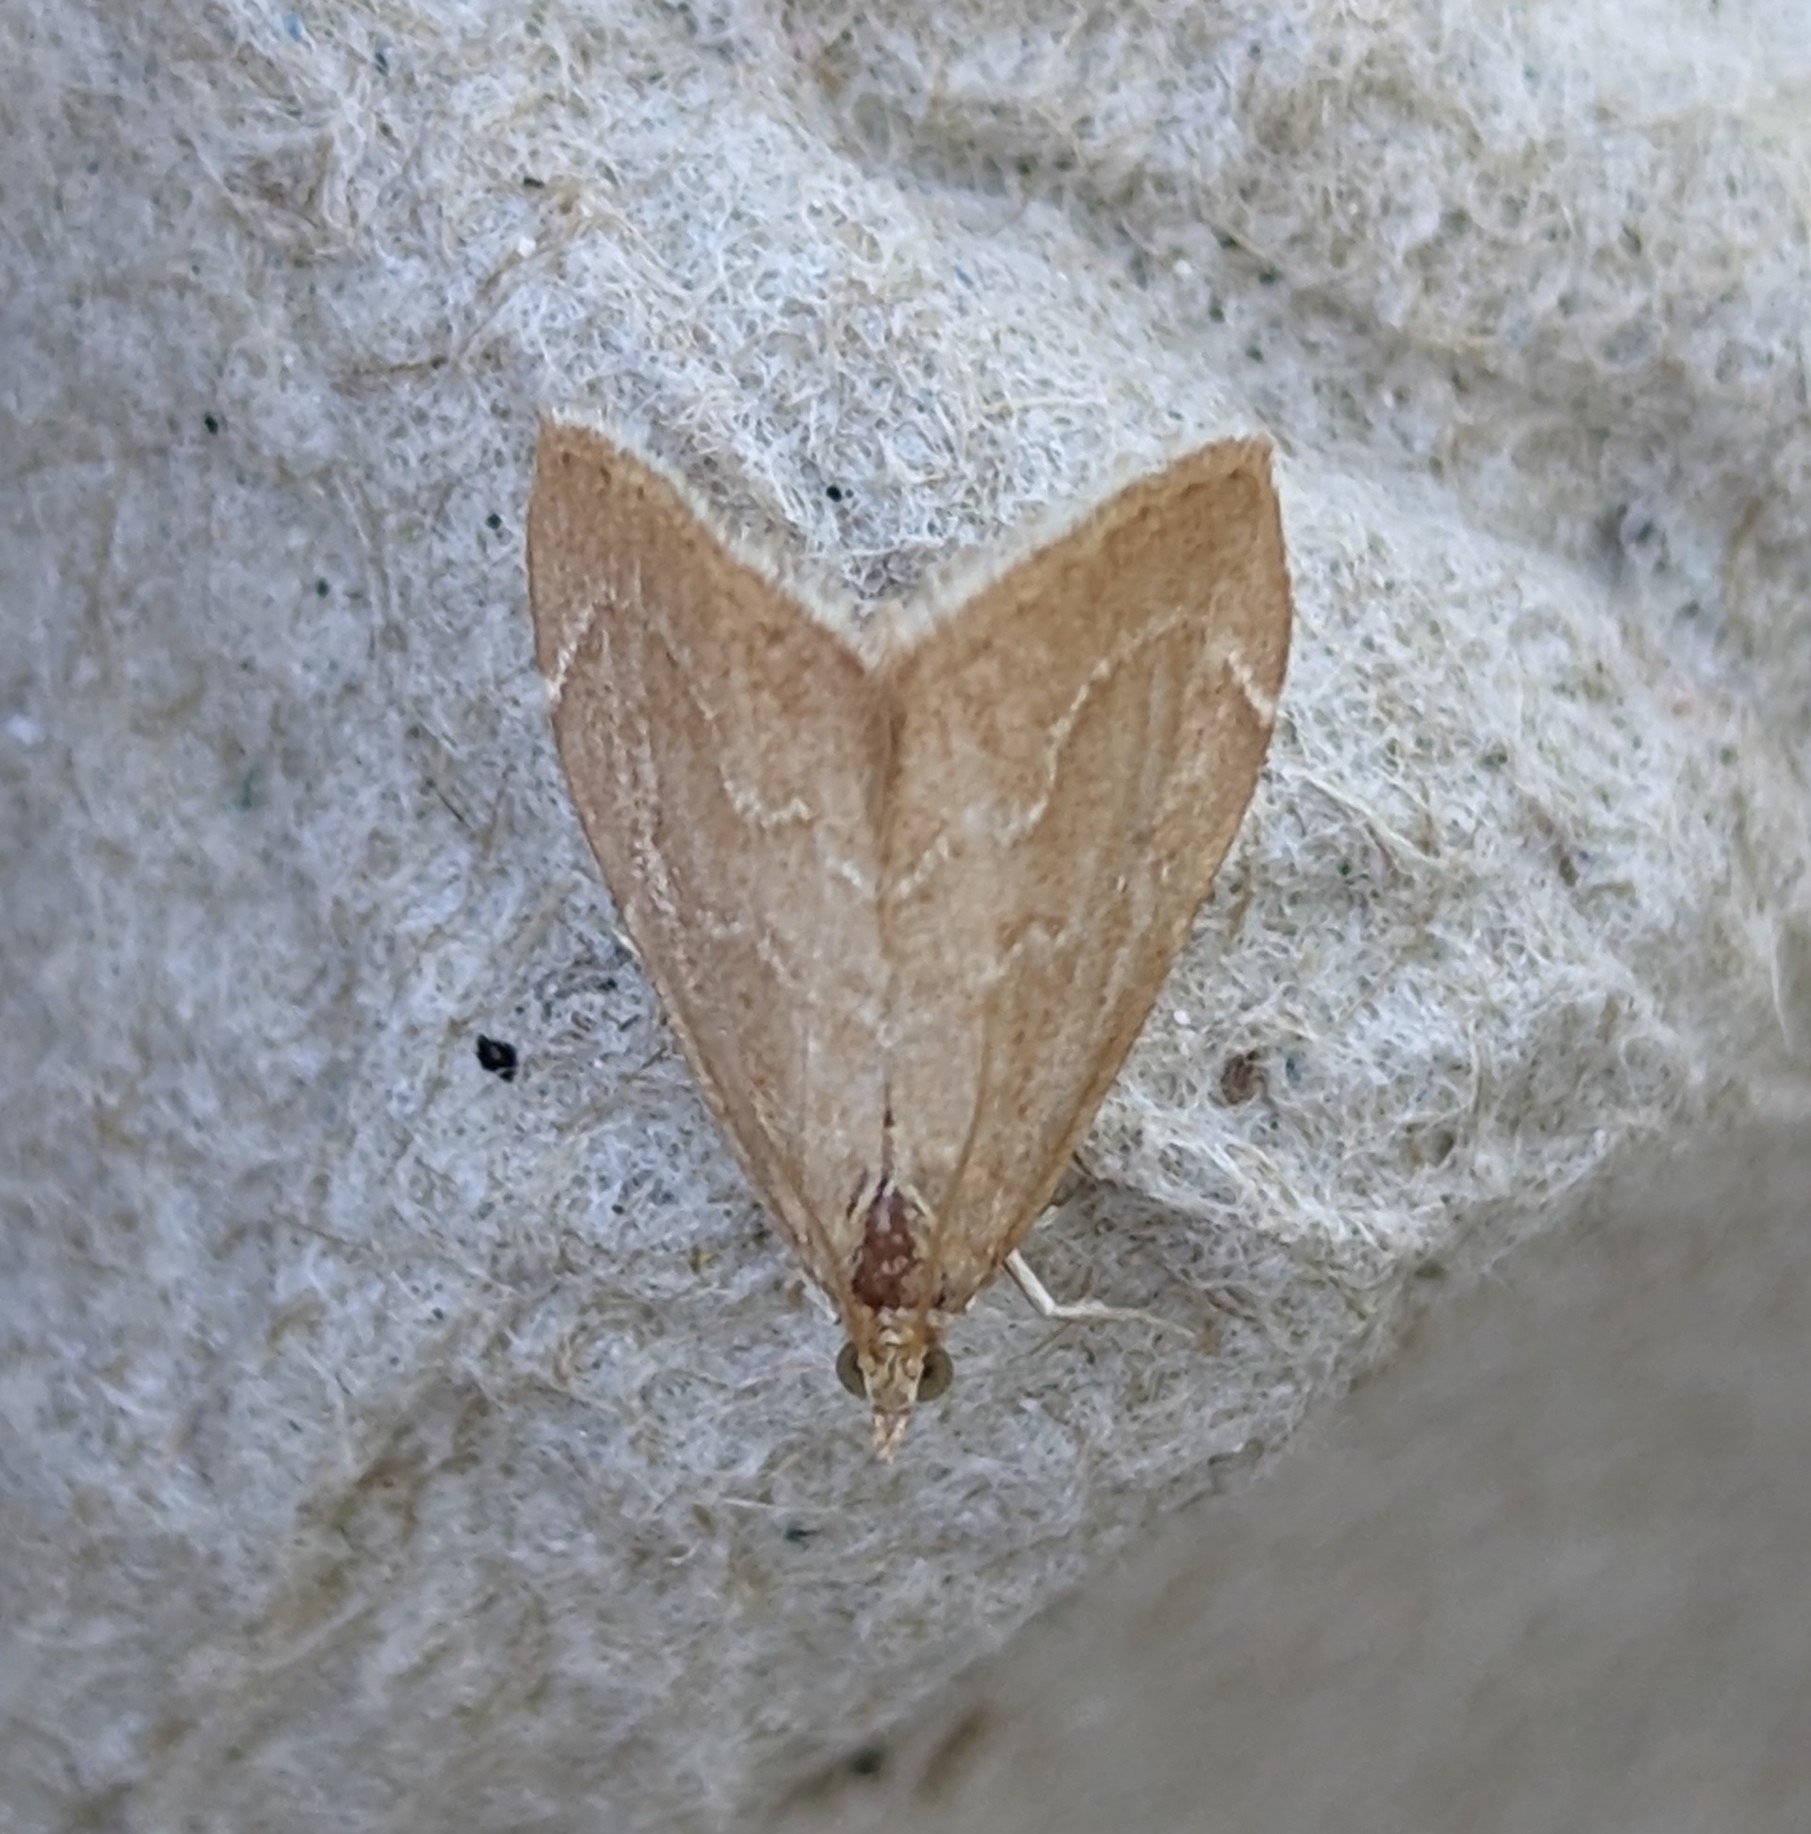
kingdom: Animalia
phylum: Arthropoda
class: Insecta
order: Lepidoptera
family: Crambidae
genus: Stegea
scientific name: Stegea salutalis
